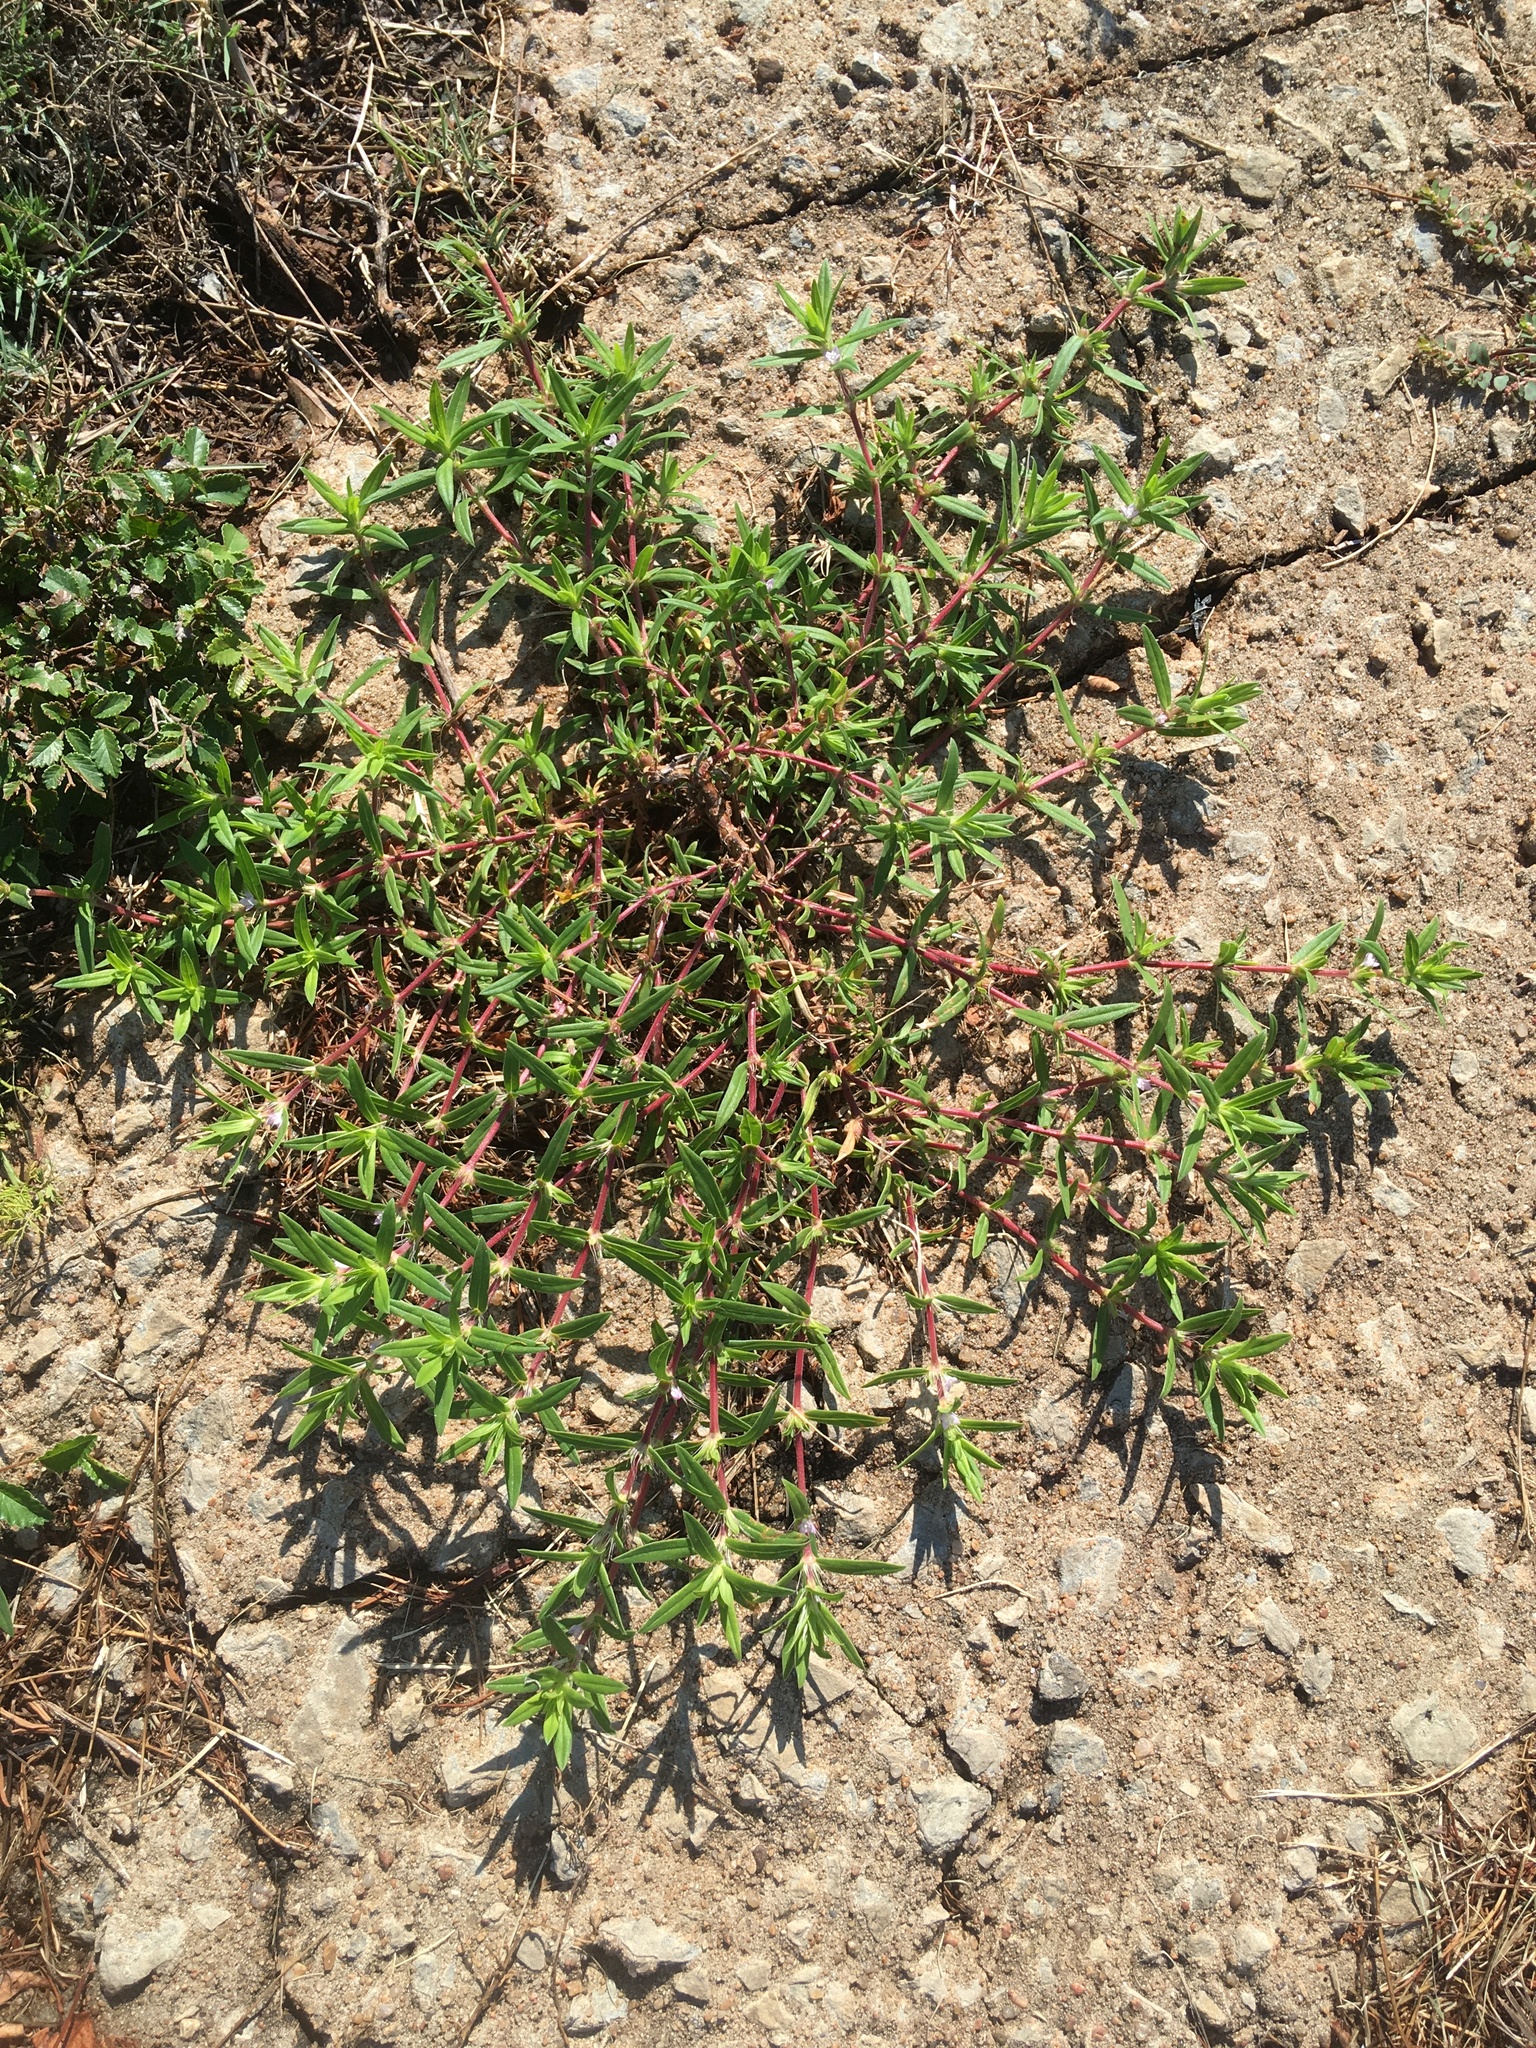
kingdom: Plantae
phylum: Tracheophyta
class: Magnoliopsida
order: Gentianales
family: Rubiaceae
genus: Hexasepalum
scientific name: Hexasepalum teres
